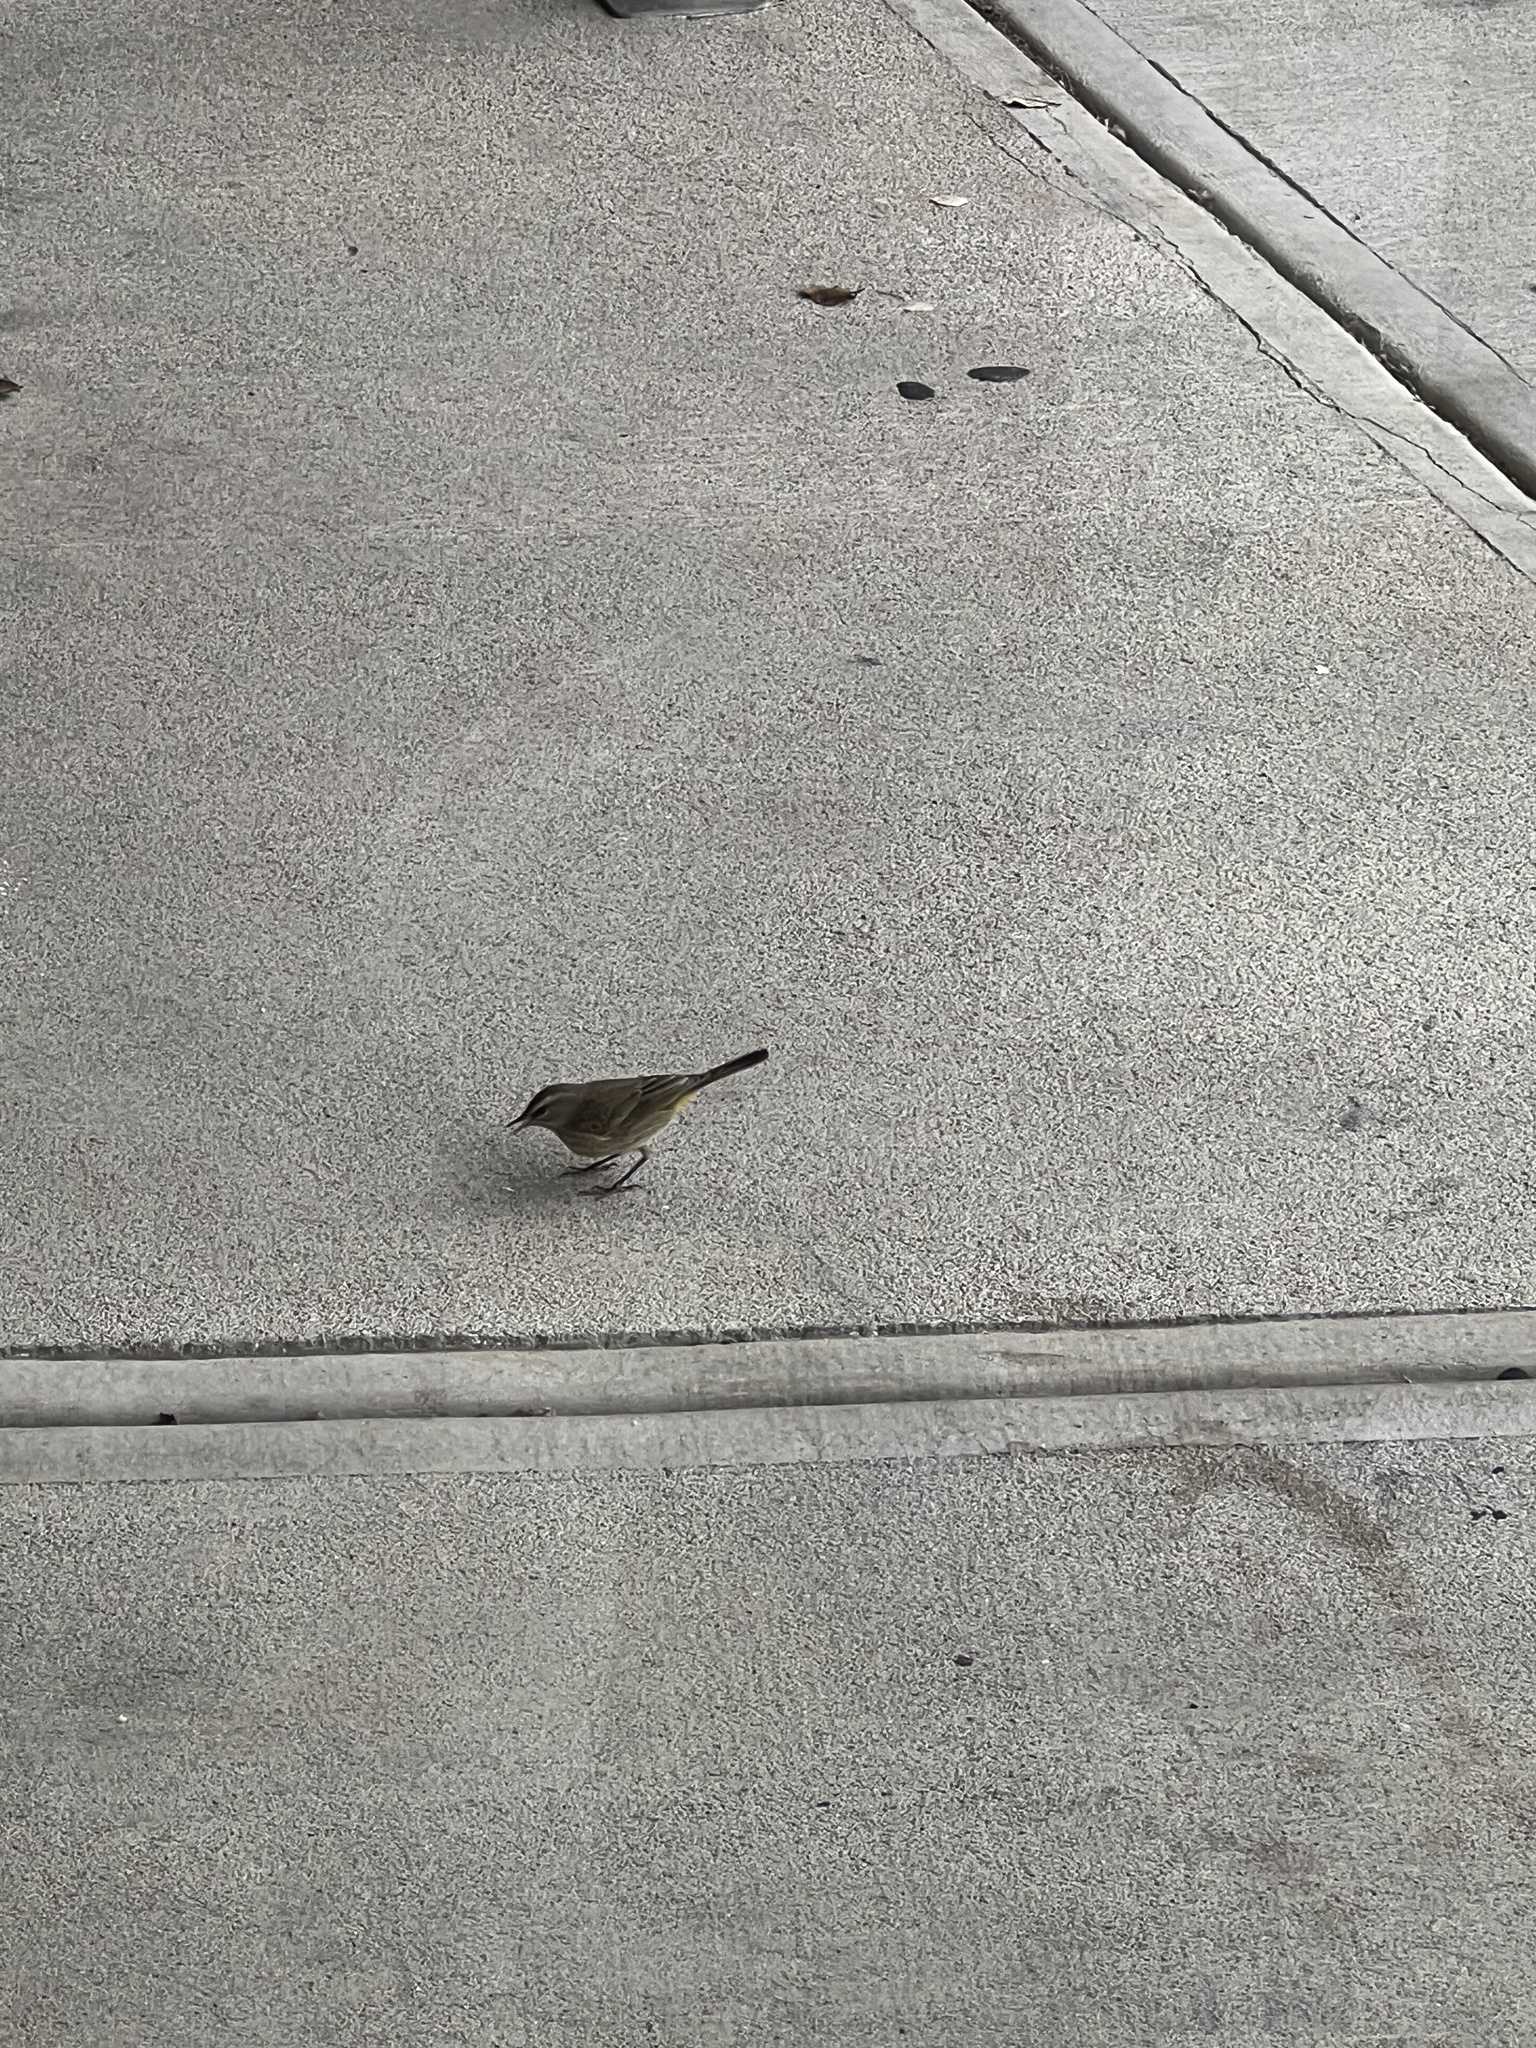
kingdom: Animalia
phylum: Chordata
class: Aves
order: Passeriformes
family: Parulidae
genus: Setophaga
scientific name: Setophaga palmarum
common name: Palm warbler
